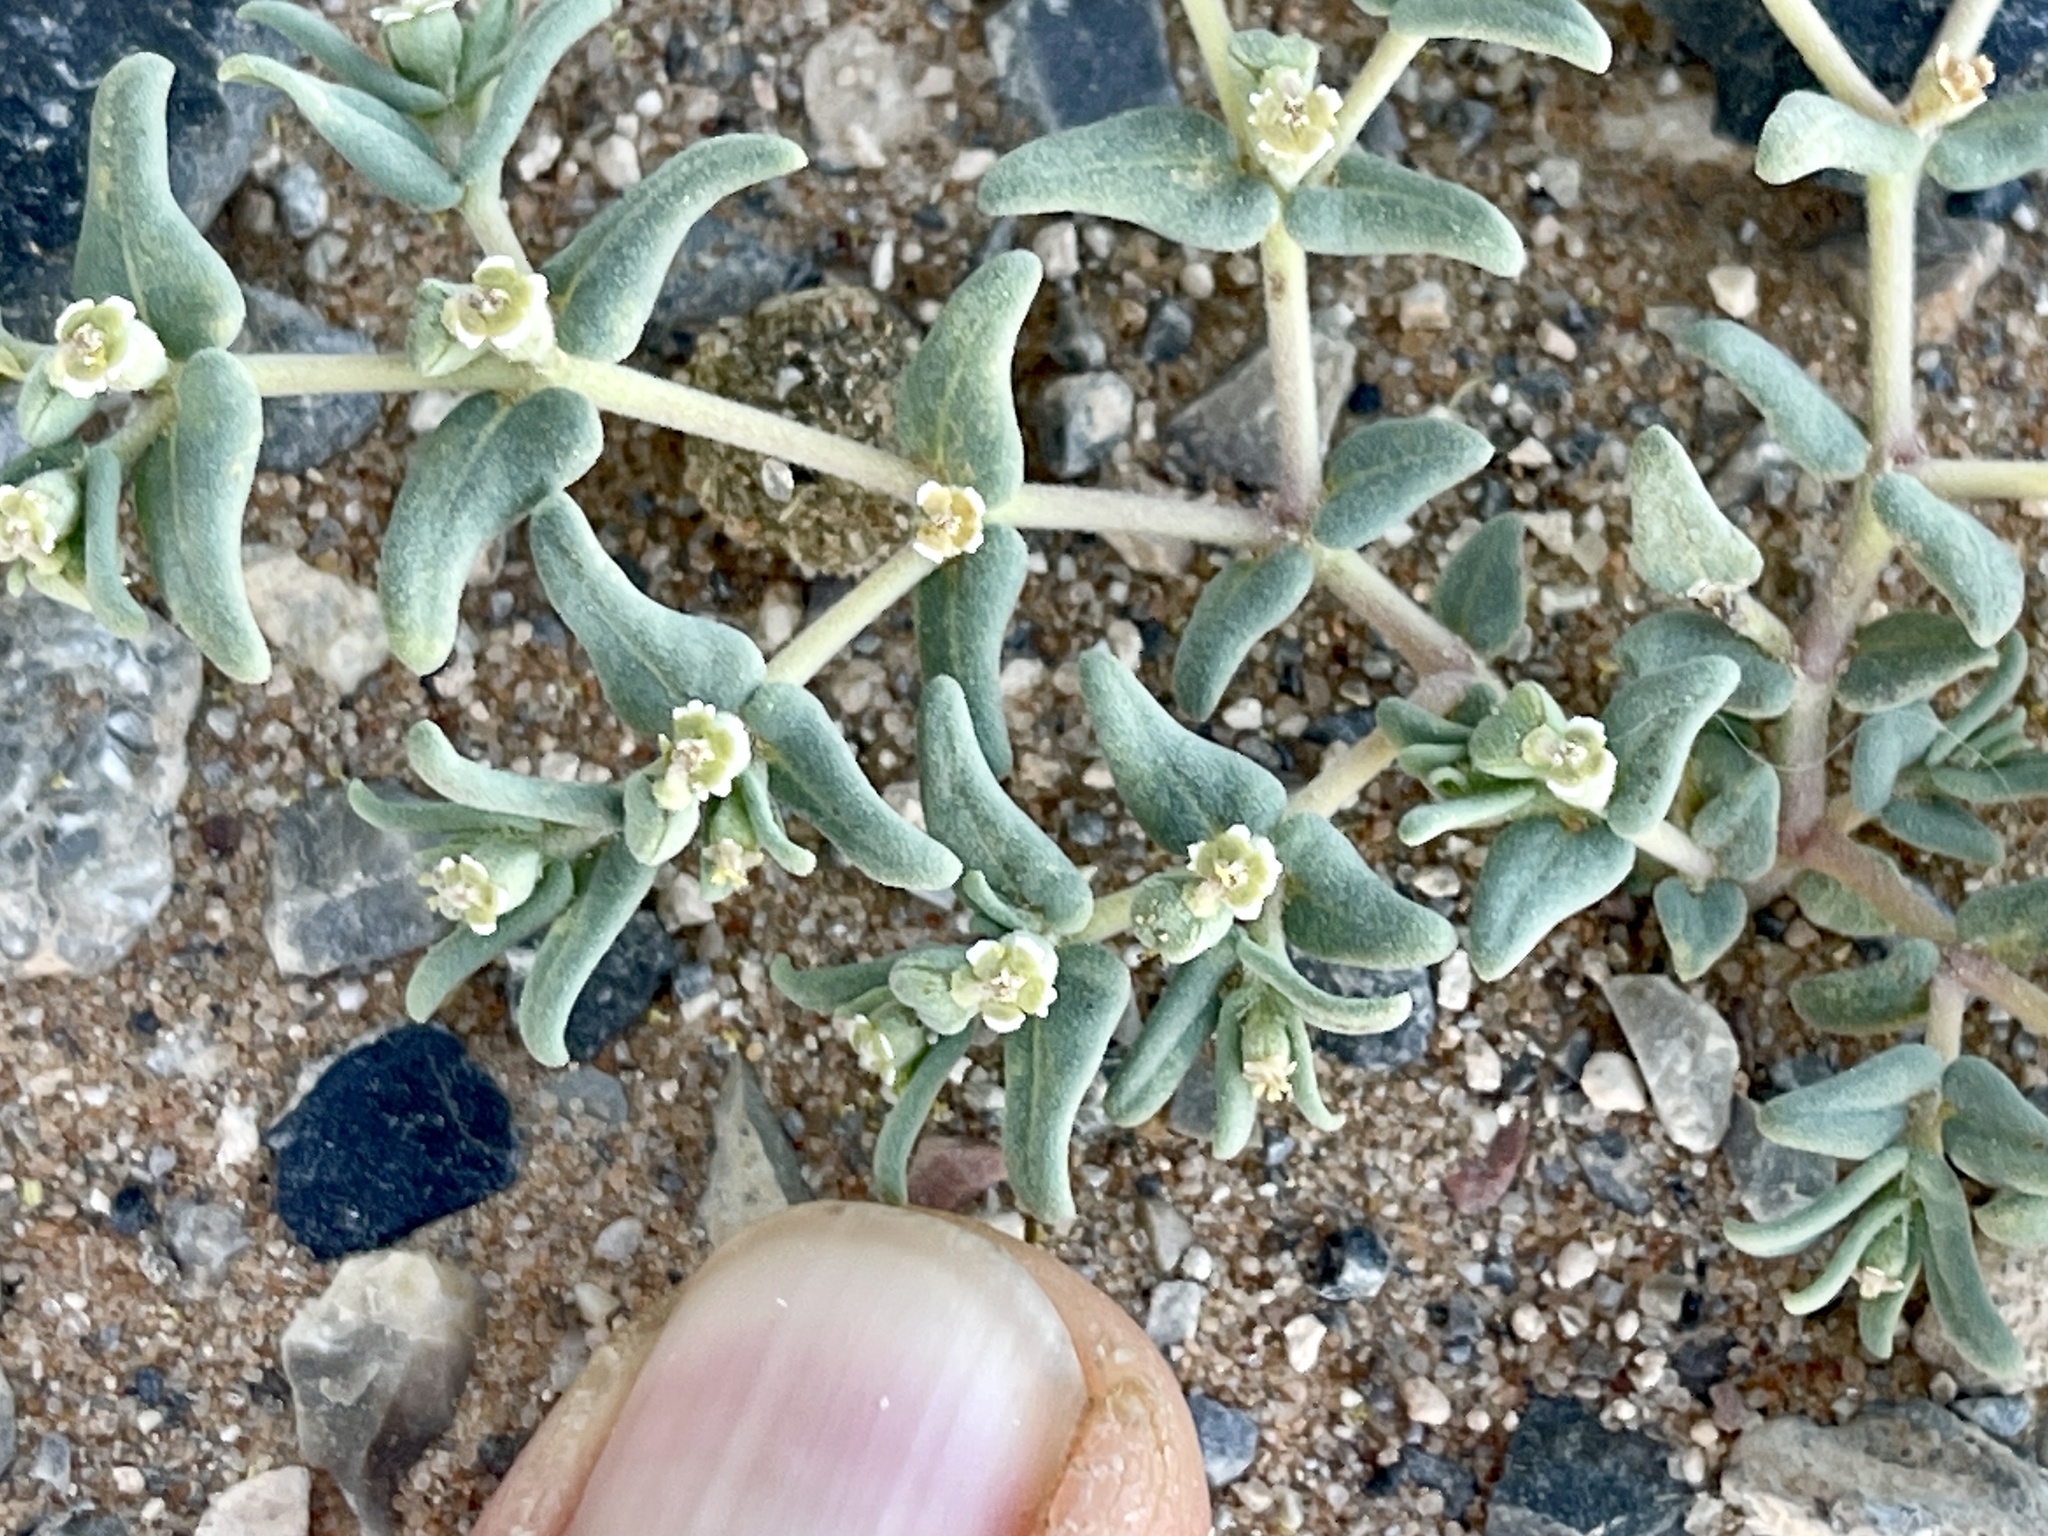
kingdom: Plantae
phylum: Tracheophyta
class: Magnoliopsida
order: Malpighiales
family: Euphorbiaceae
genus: Euphorbia
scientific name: Euphorbia lata
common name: Hoary euphorbia
